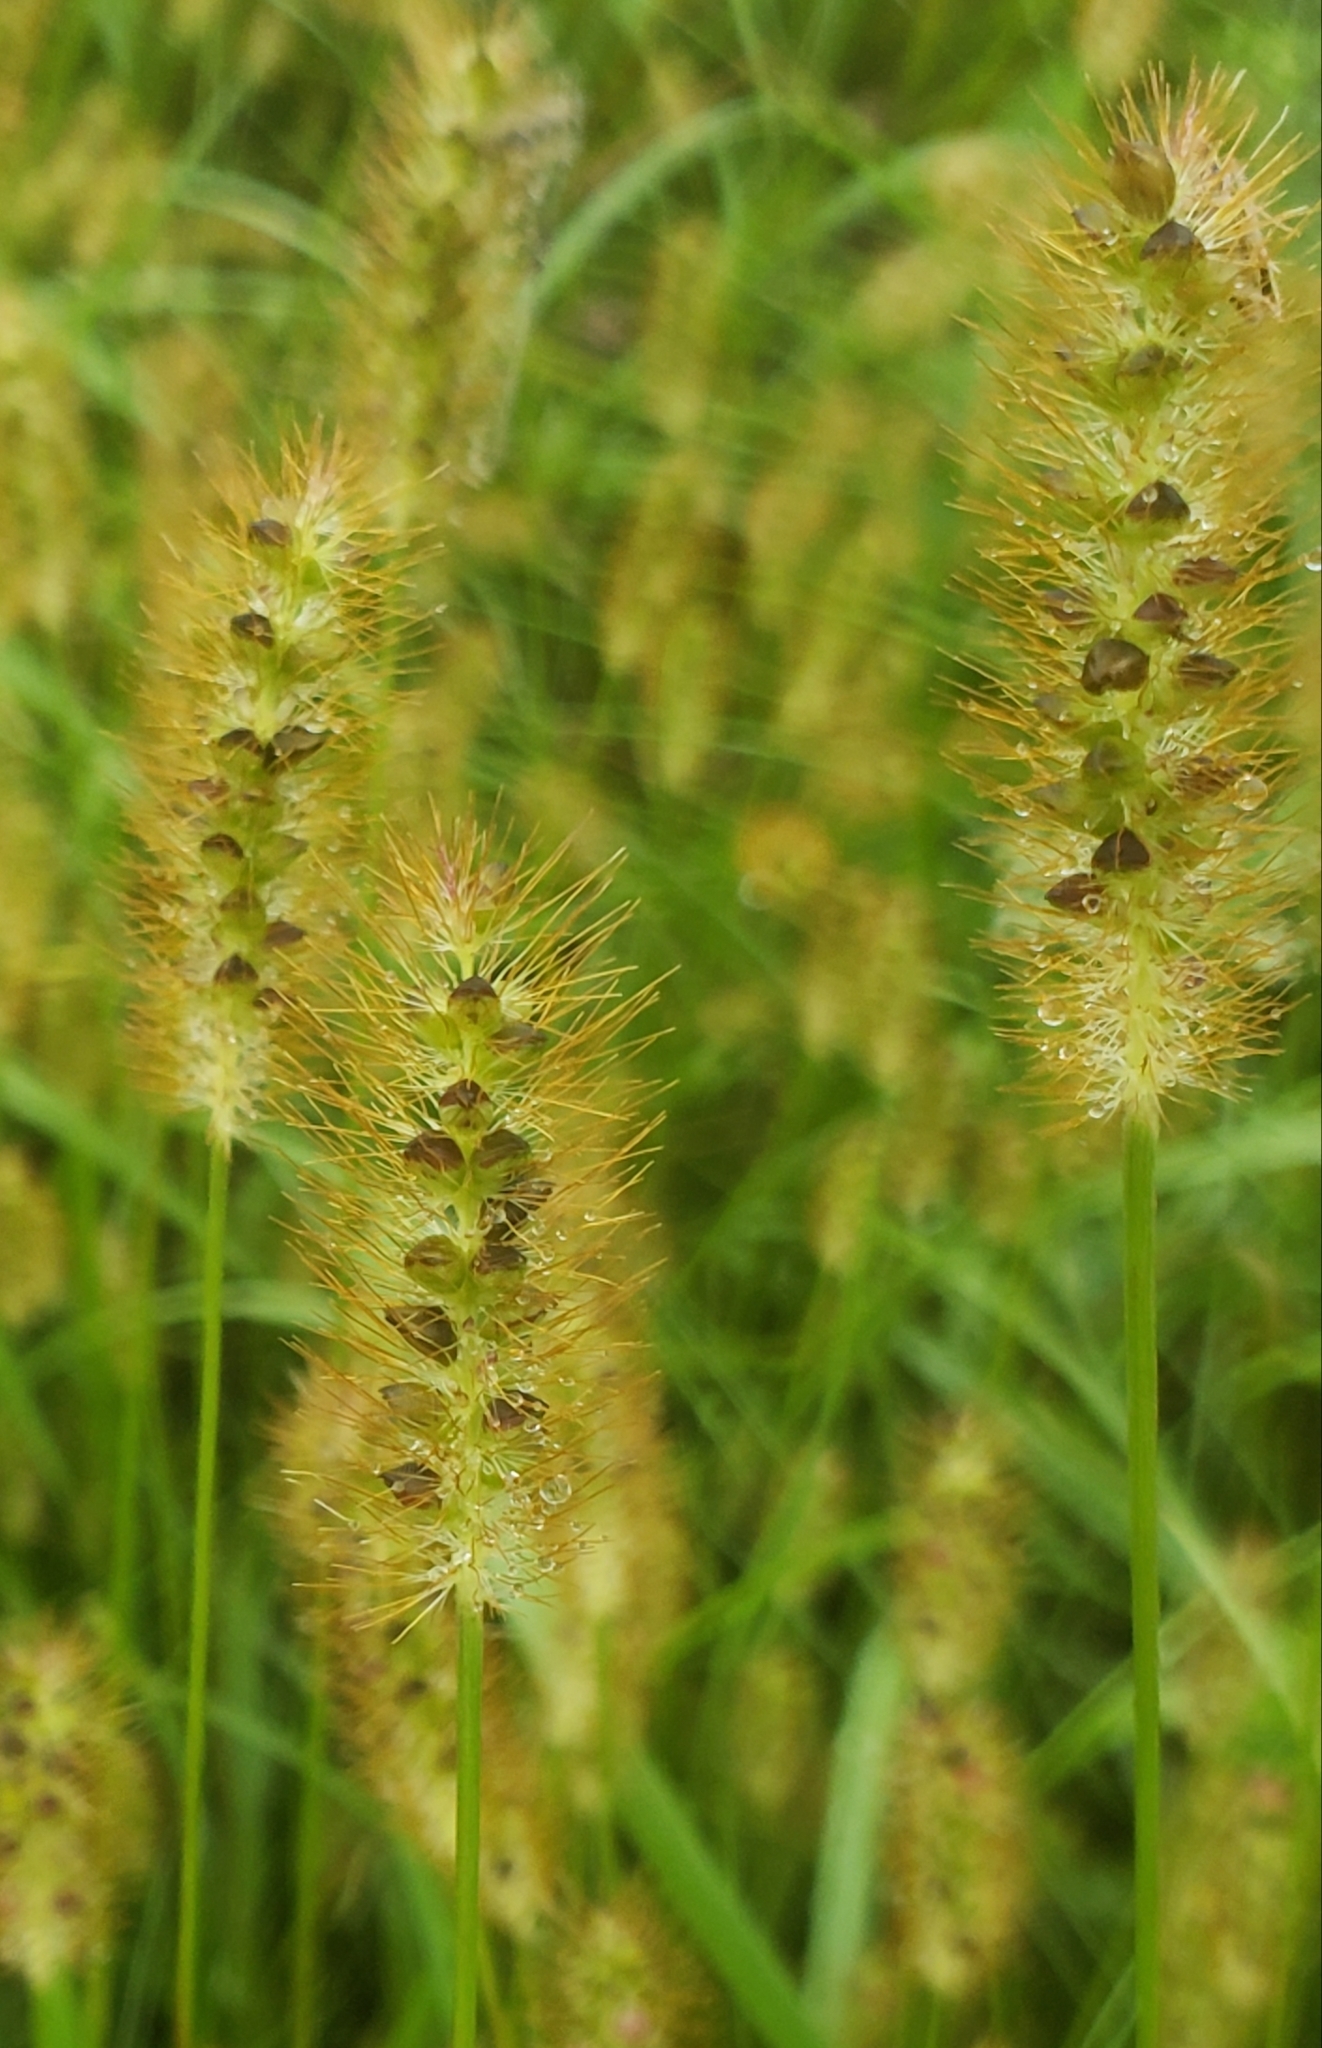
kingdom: Plantae
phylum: Tracheophyta
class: Liliopsida
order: Poales
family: Poaceae
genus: Setaria
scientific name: Setaria pumila
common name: Yellow bristle-grass
